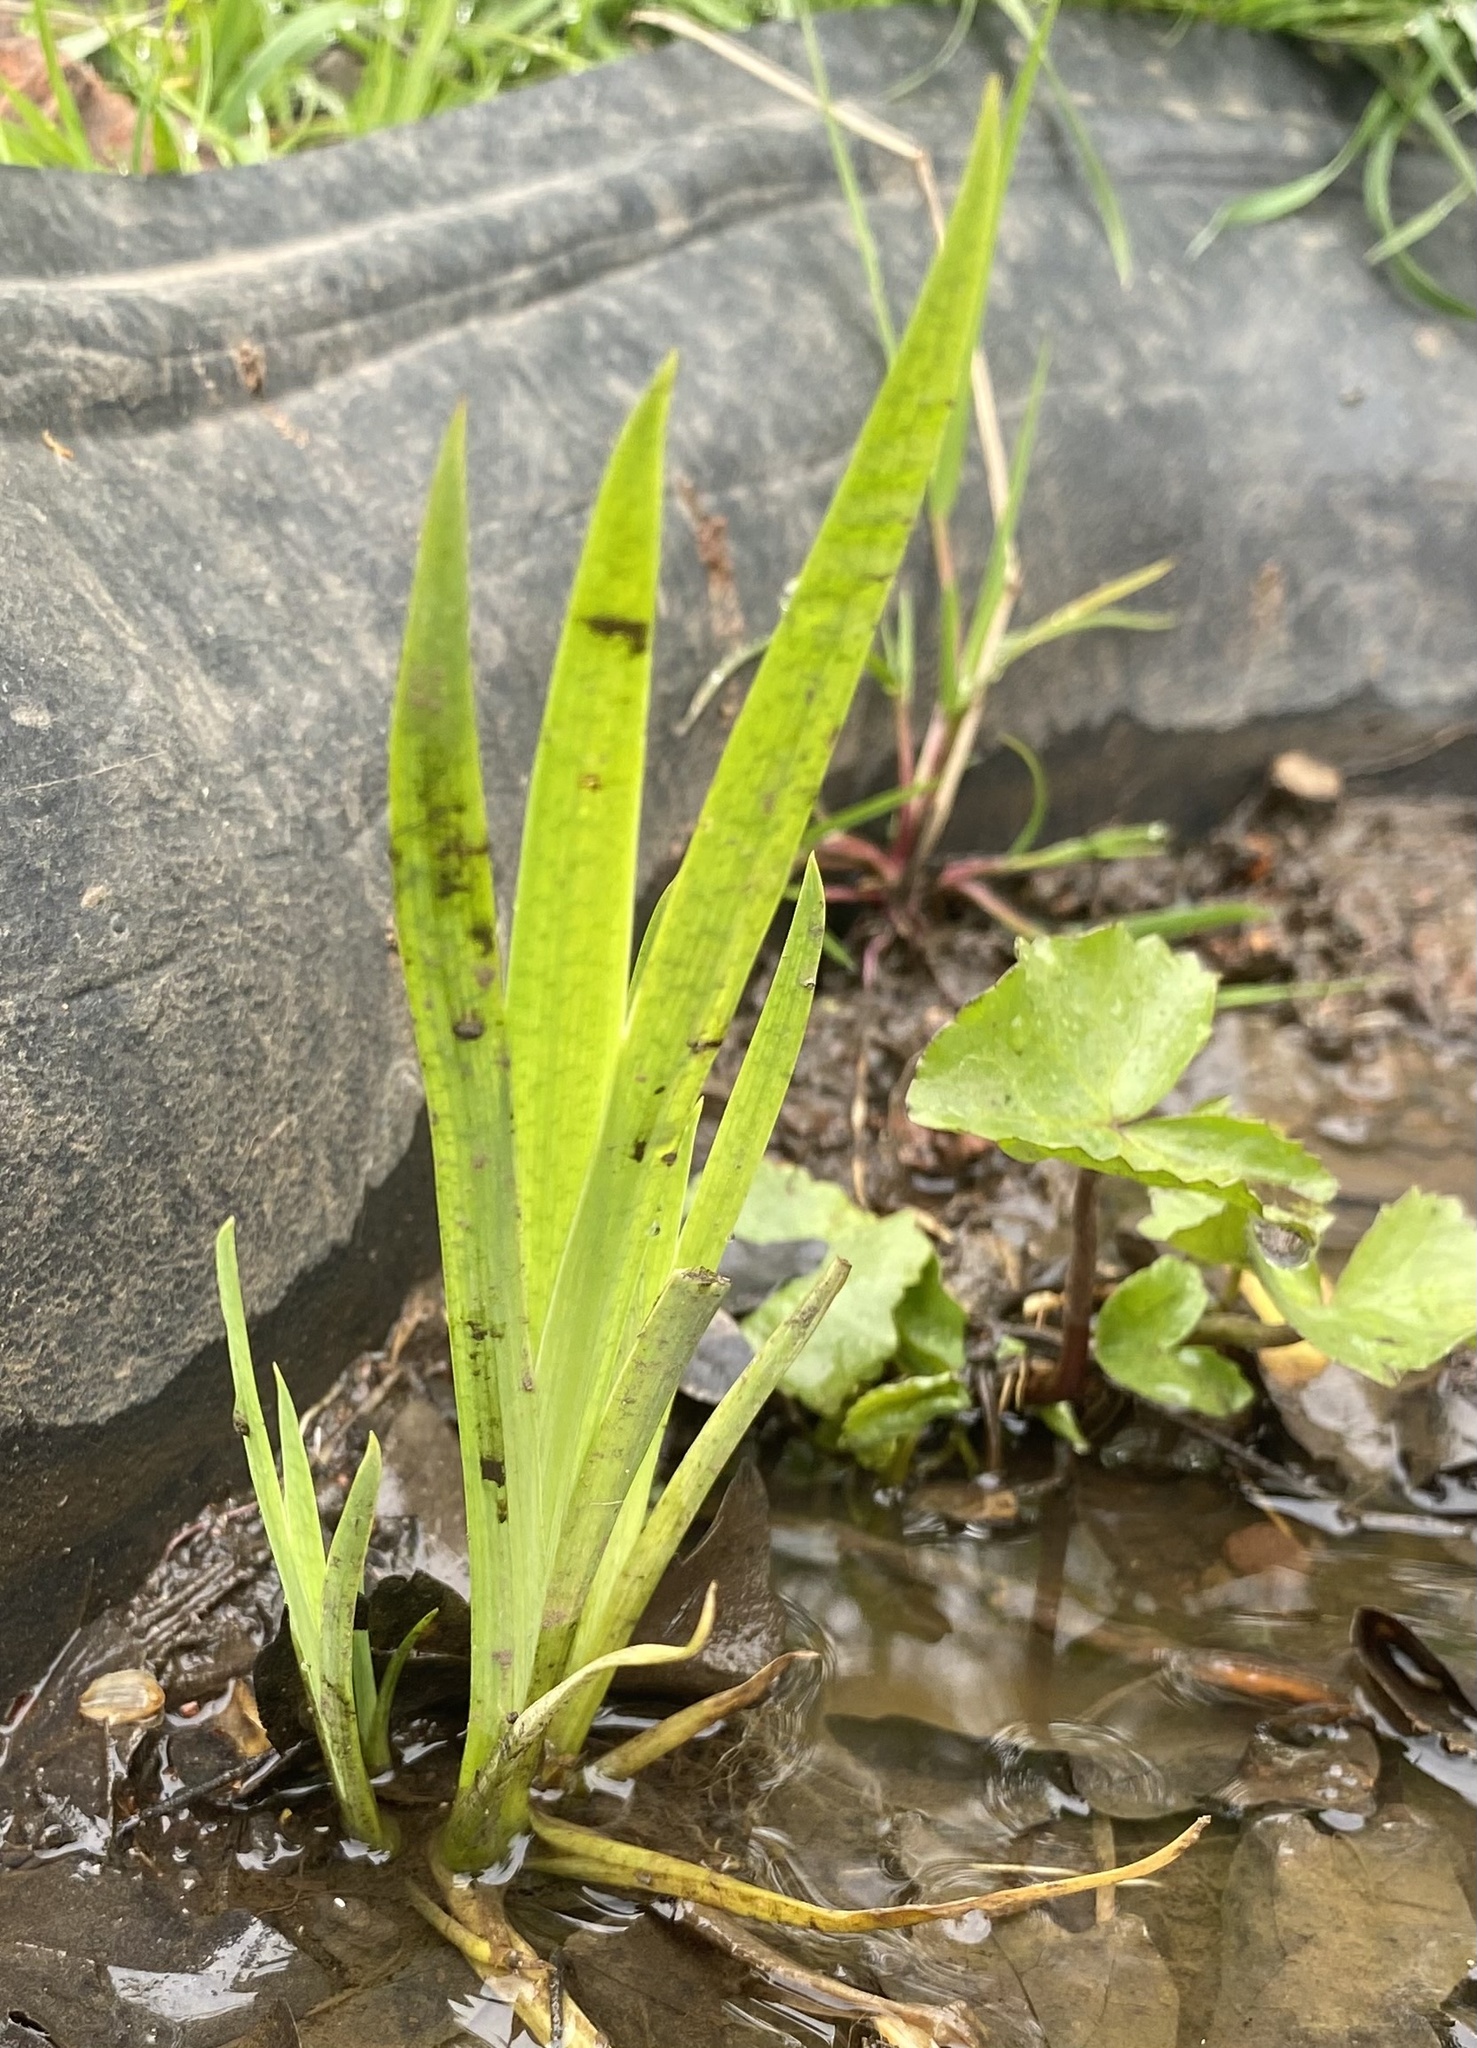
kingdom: Plantae
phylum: Tracheophyta
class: Liliopsida
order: Asparagales
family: Iridaceae
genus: Iris
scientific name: Iris pseudacorus
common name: Yellow flag
